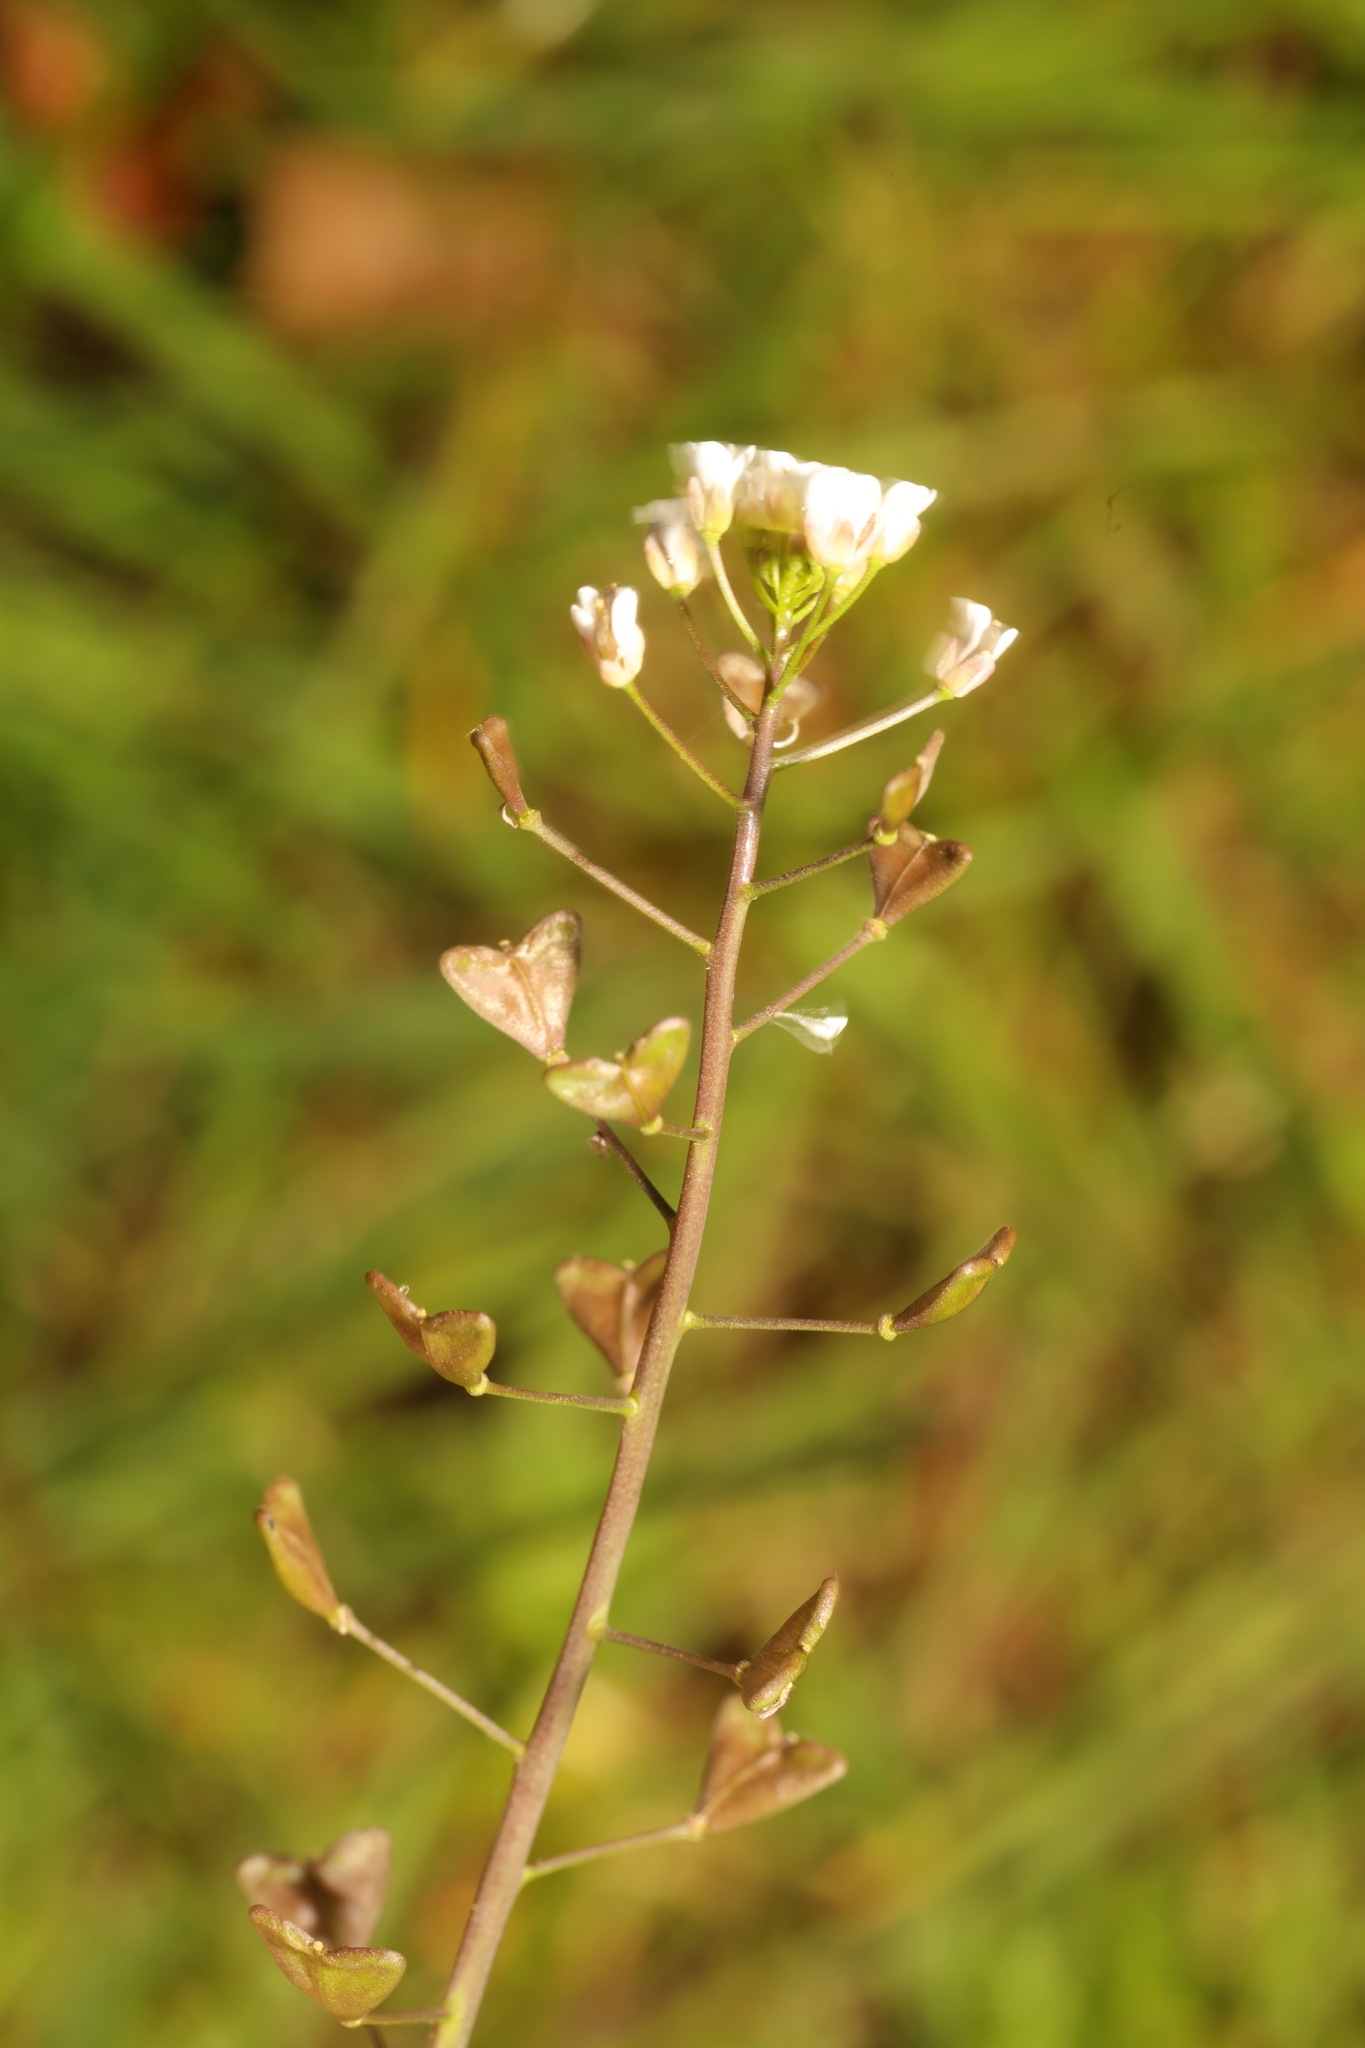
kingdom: Plantae
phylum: Tracheophyta
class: Magnoliopsida
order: Brassicales
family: Brassicaceae
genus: Capsella
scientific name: Capsella bursa-pastoris
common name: Shepherd's purse
